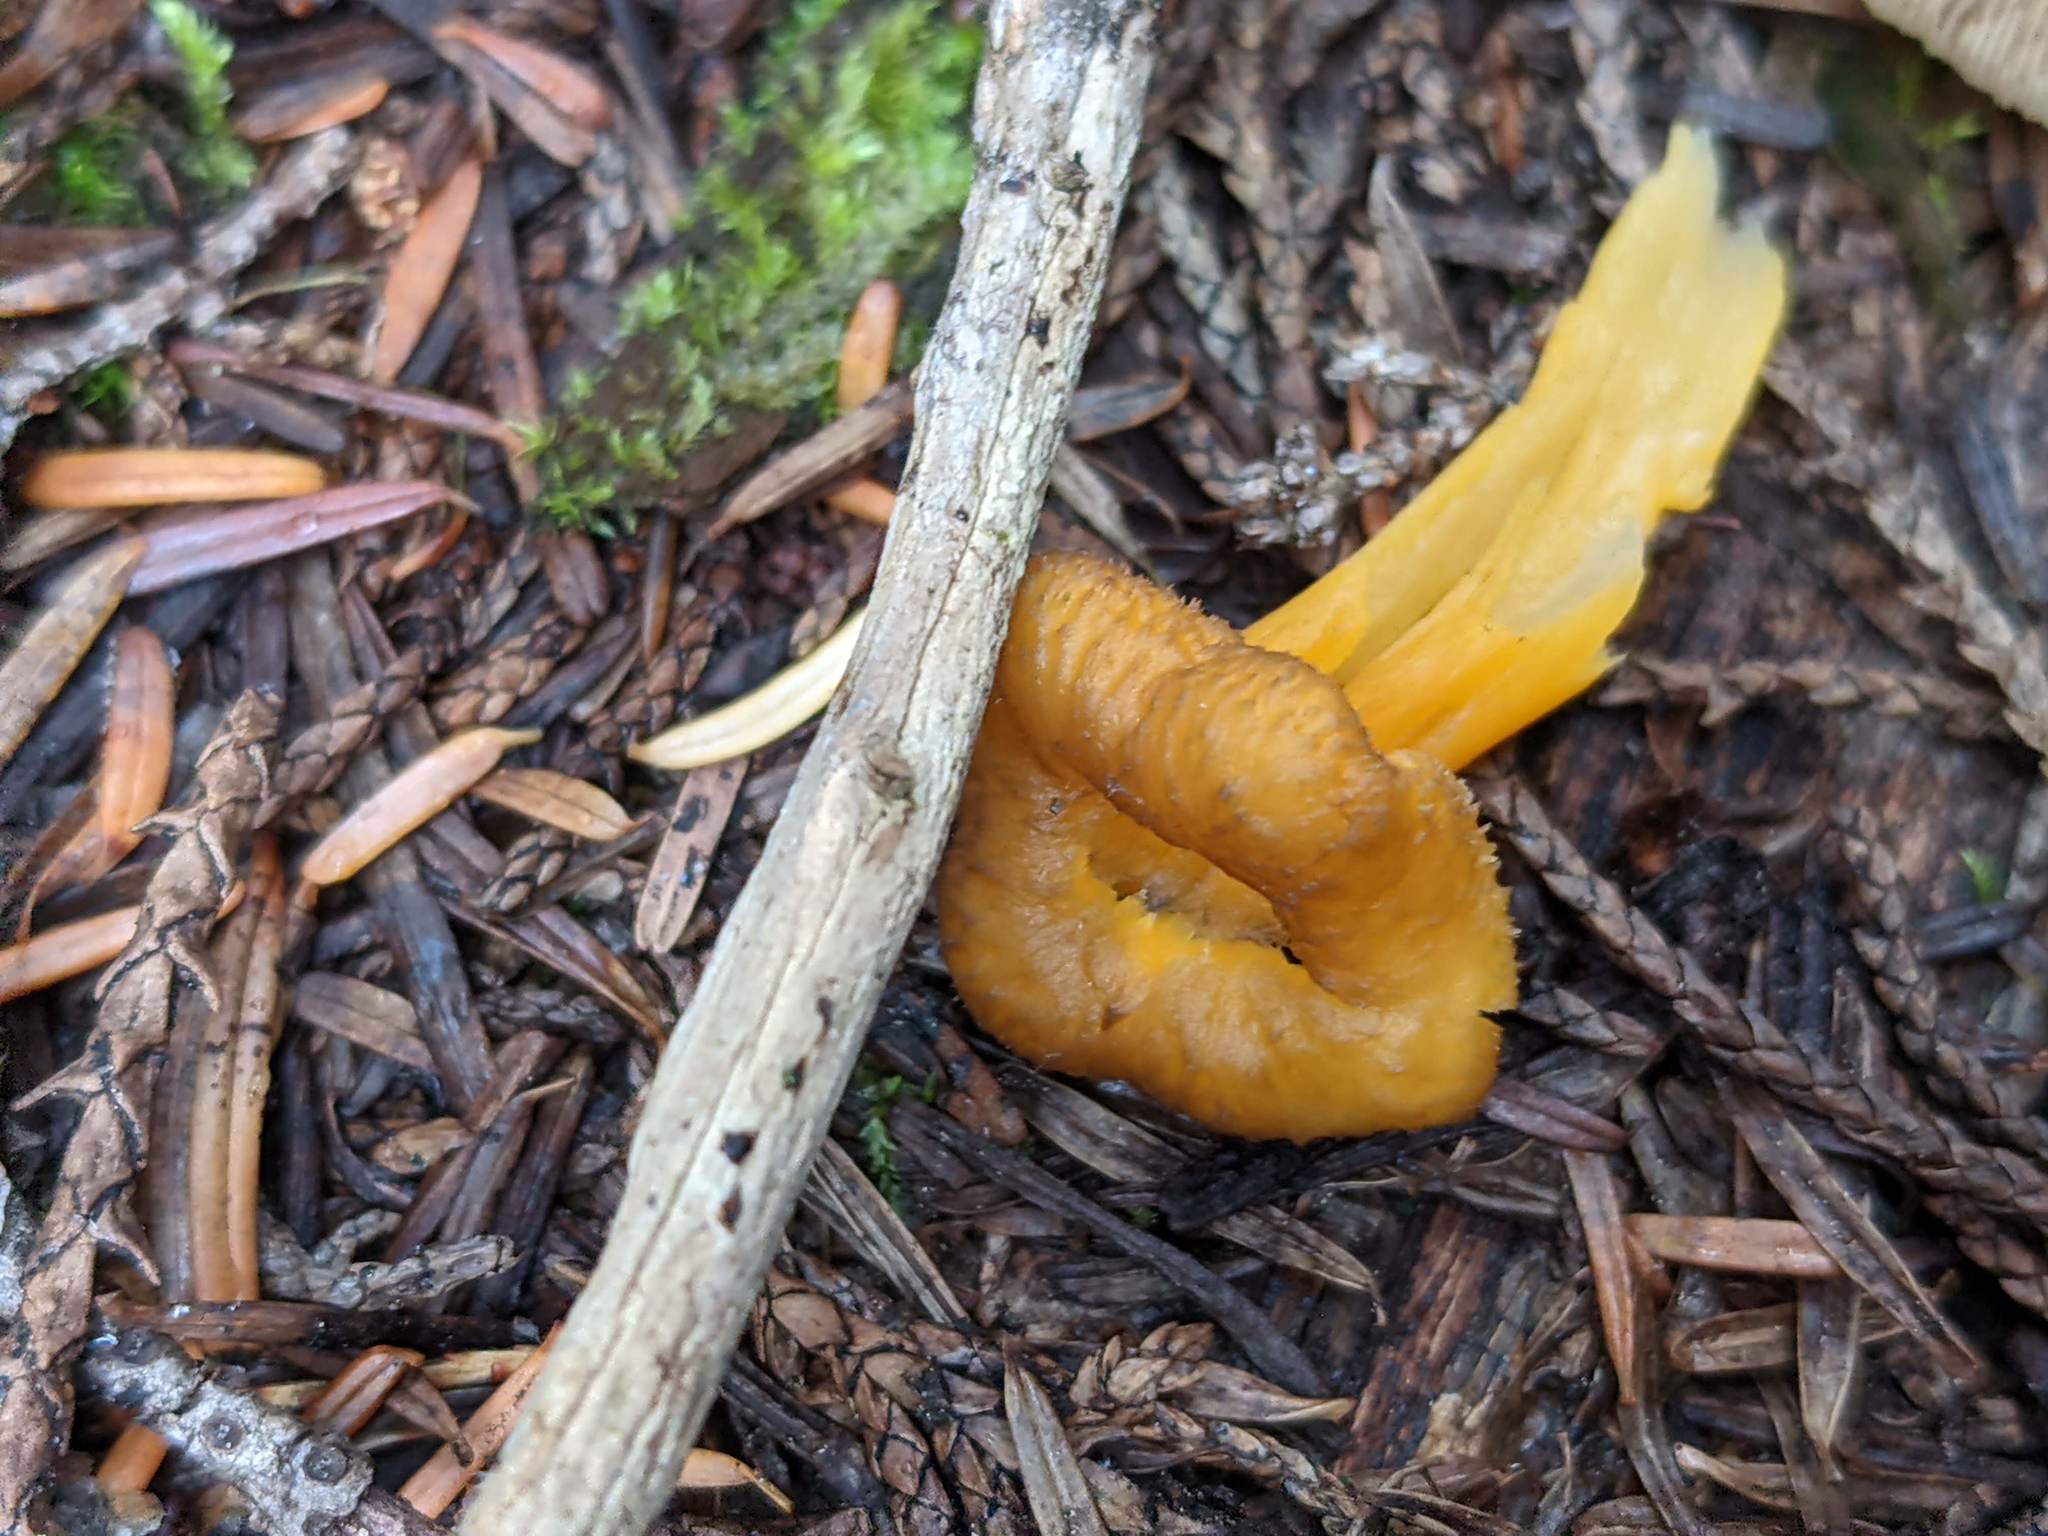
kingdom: Fungi
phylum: Basidiomycota
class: Agaricomycetes
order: Cantharellales
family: Hydnaceae
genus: Craterellus
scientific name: Craterellus tubaeformis
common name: Yellowfoot
